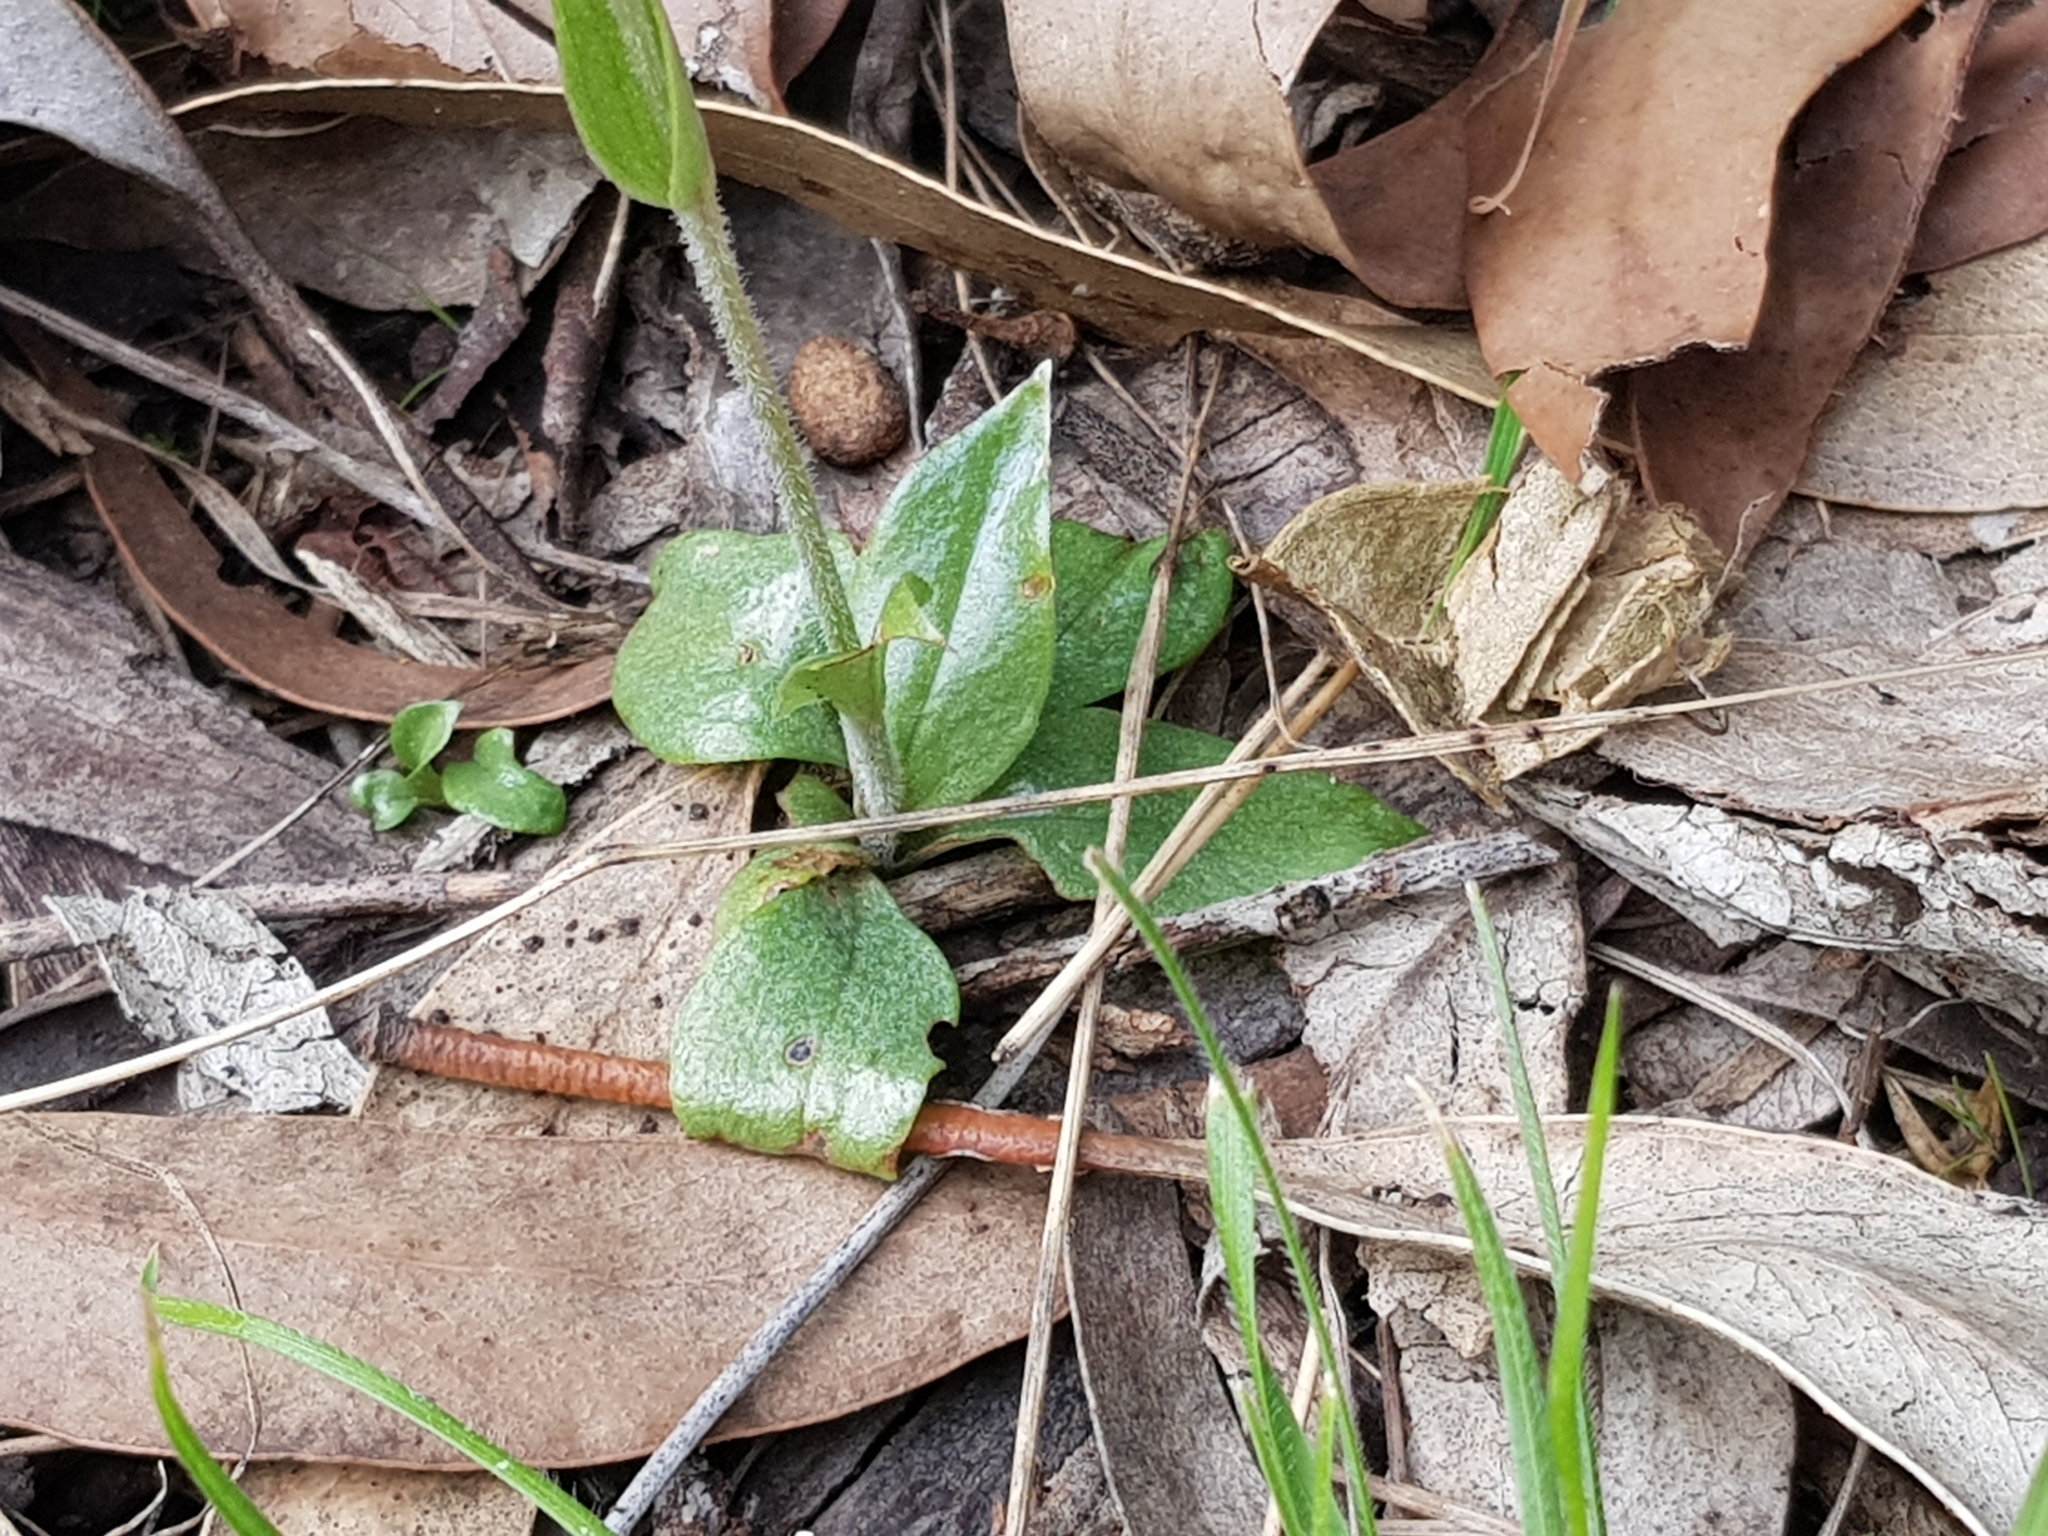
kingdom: Plantae
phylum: Tracheophyta
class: Liliopsida
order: Asparagales
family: Orchidaceae
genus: Pterostylis
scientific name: Pterostylis nana
